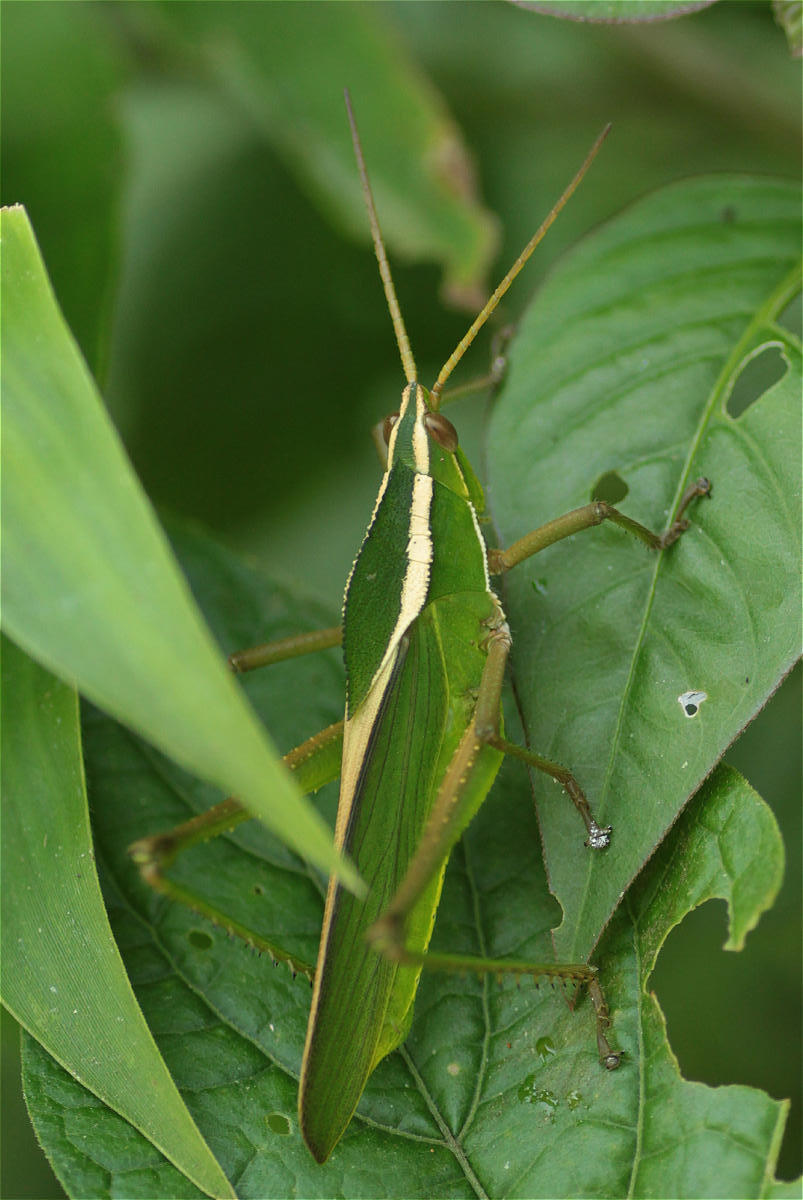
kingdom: Animalia
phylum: Arthropoda
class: Insecta
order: Orthoptera
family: Romaleidae
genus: Prionolopha
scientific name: Prionolopha serrata
